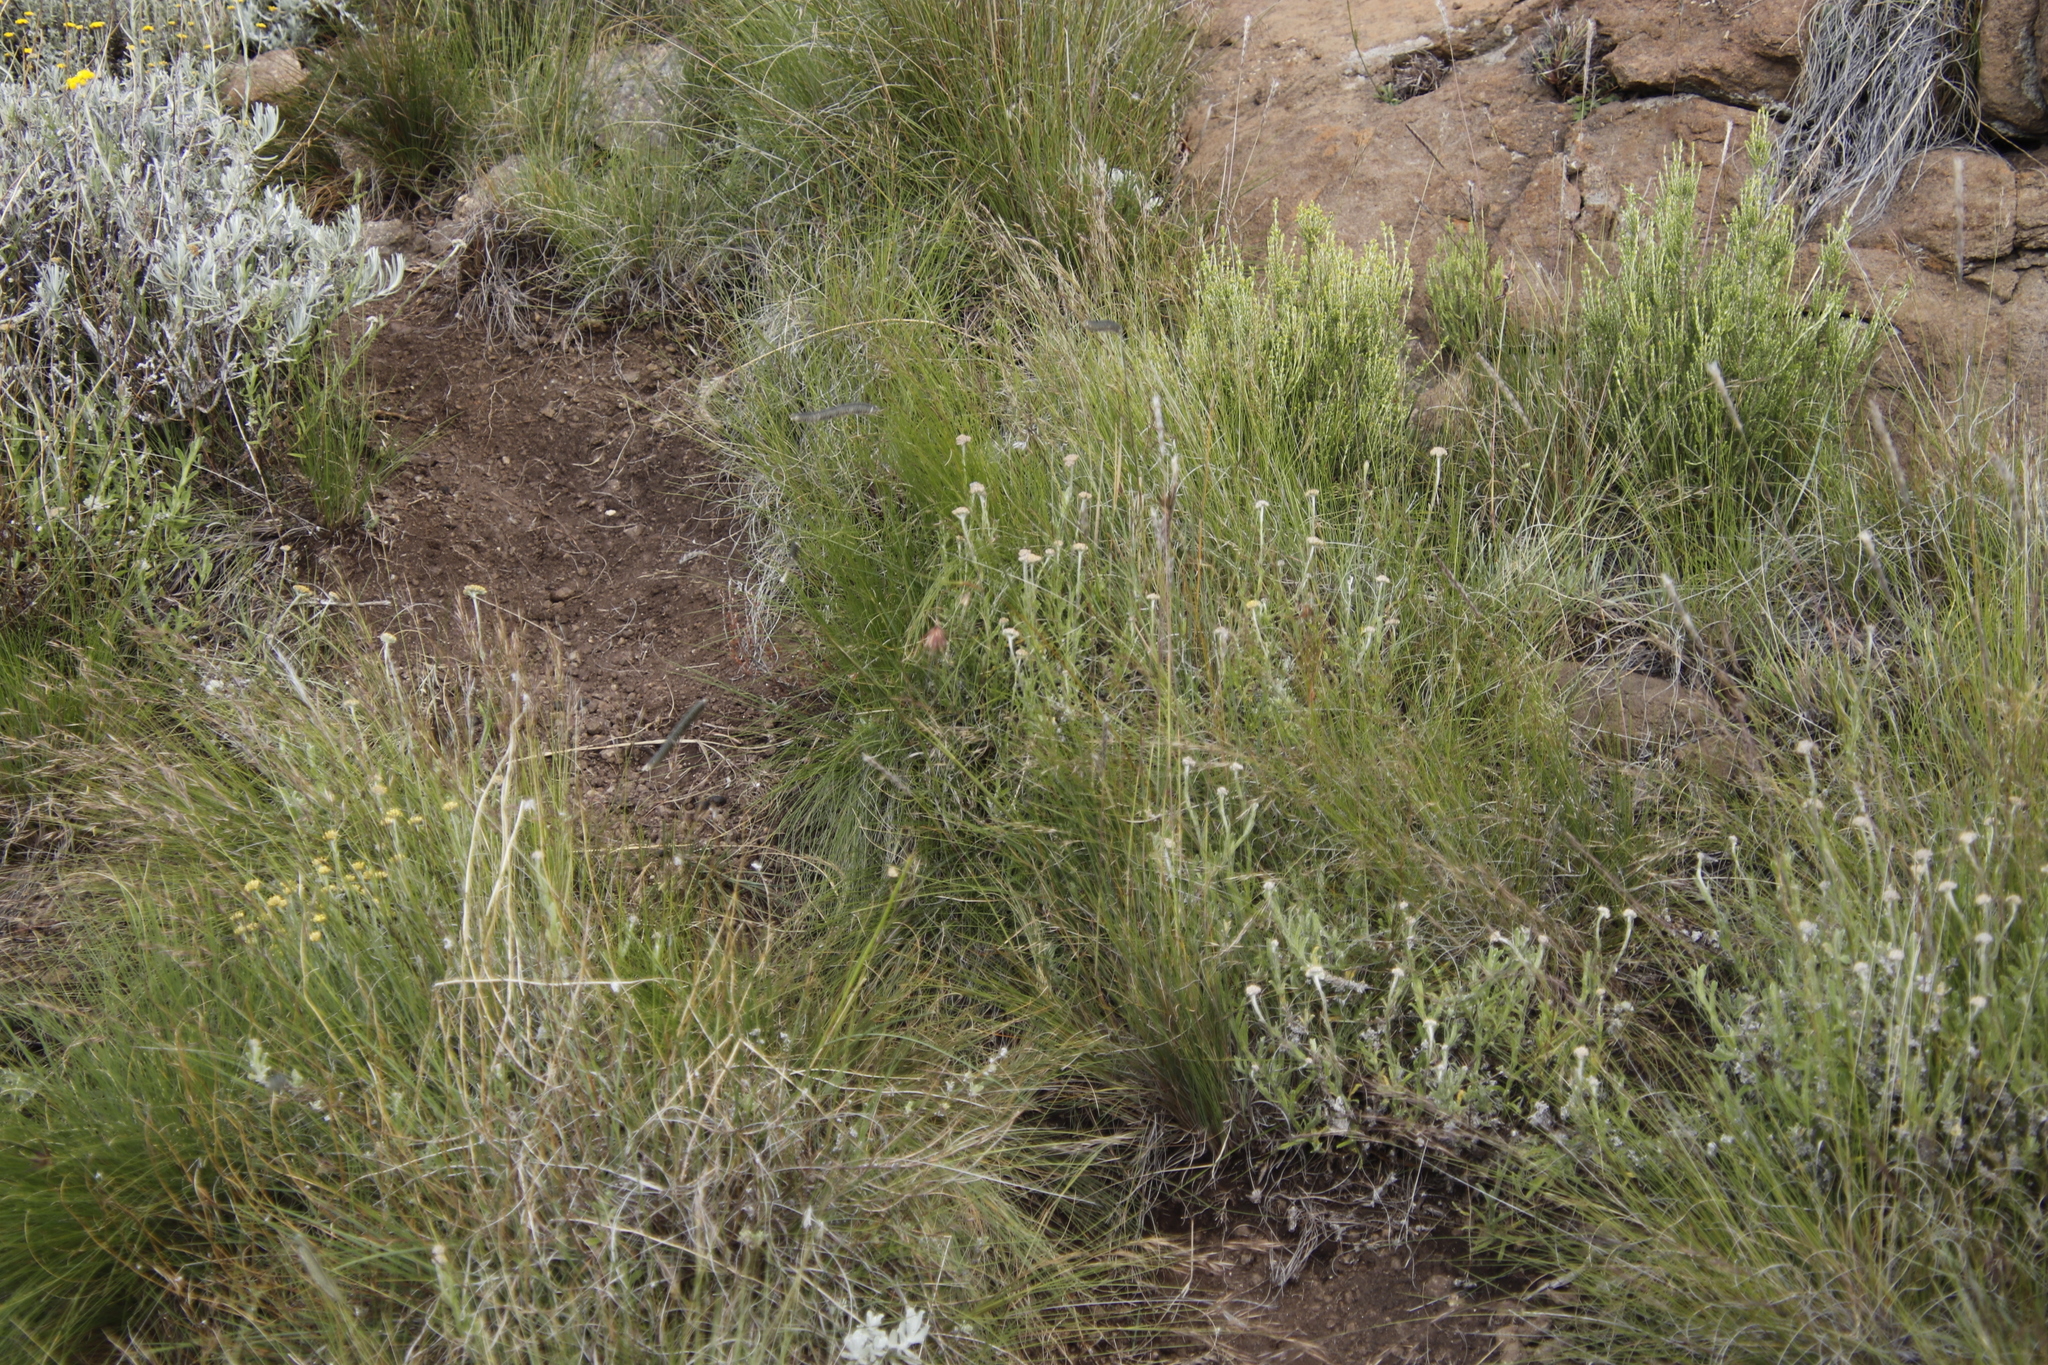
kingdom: Plantae
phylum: Tracheophyta
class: Liliopsida
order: Poales
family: Poaceae
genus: Harpochloa
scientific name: Harpochloa falx
